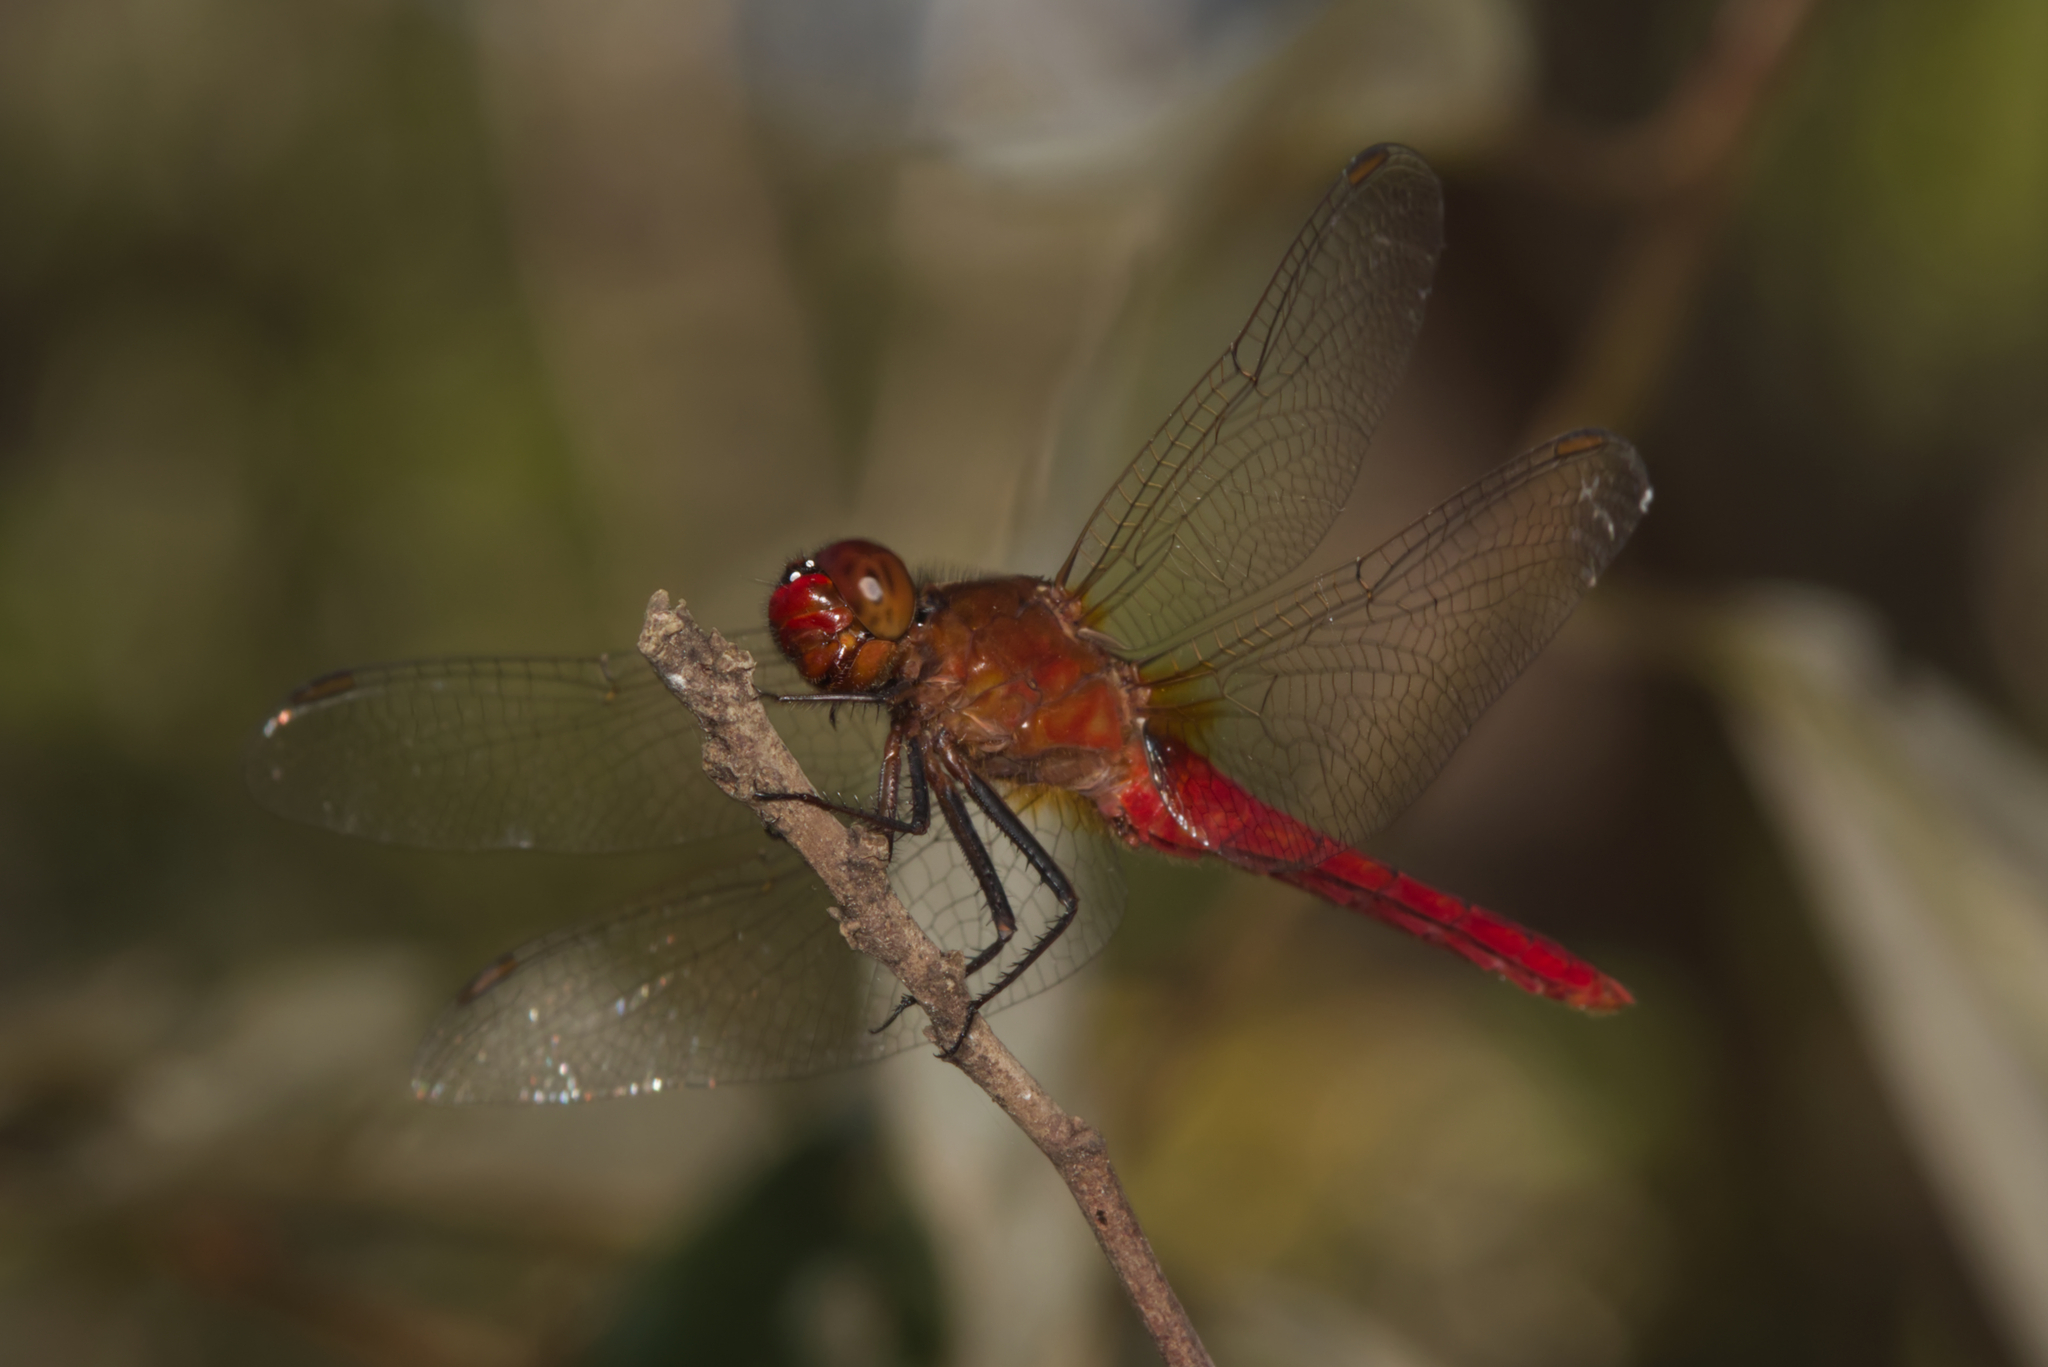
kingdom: Animalia
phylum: Arthropoda
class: Insecta
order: Odonata
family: Libellulidae
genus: Rhodothemis
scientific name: Rhodothemis lieftincki
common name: Red arrow
